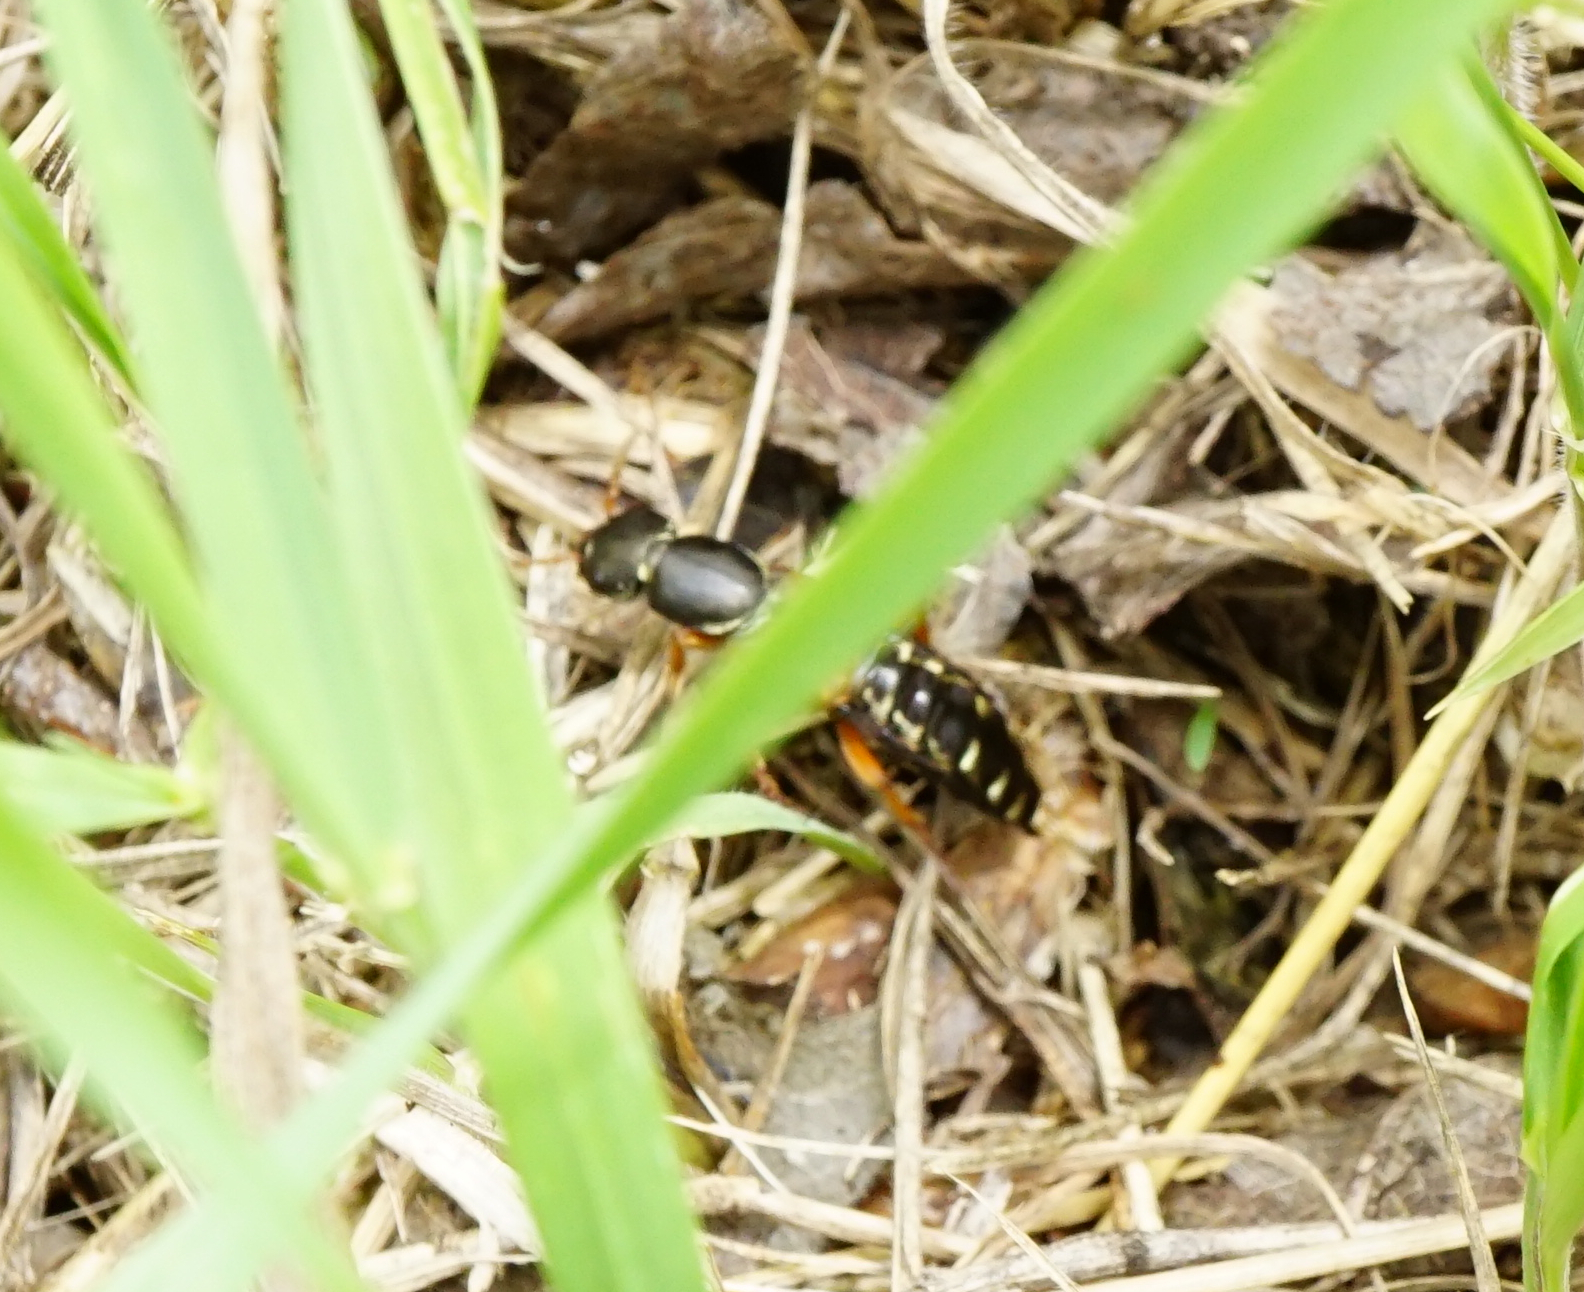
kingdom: Animalia
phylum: Arthropoda
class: Insecta
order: Coleoptera
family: Staphylinidae
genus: Staphylinus
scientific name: Staphylinus caesareus
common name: Staph beetle
